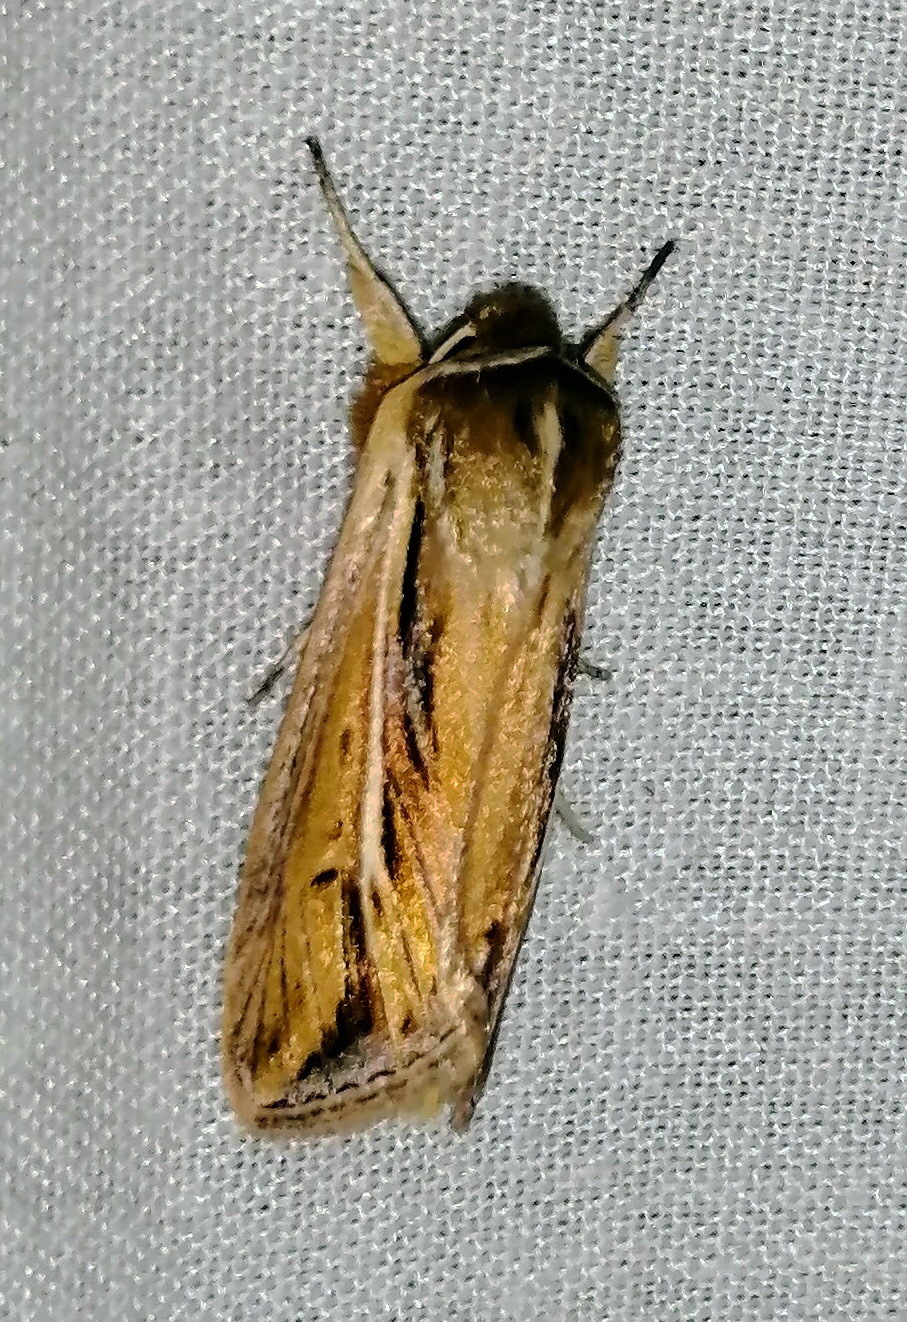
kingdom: Animalia
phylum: Arthropoda
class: Insecta
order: Lepidoptera
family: Noctuidae
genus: Dargida
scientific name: Dargida diffusa
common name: Wheat head armyworm
